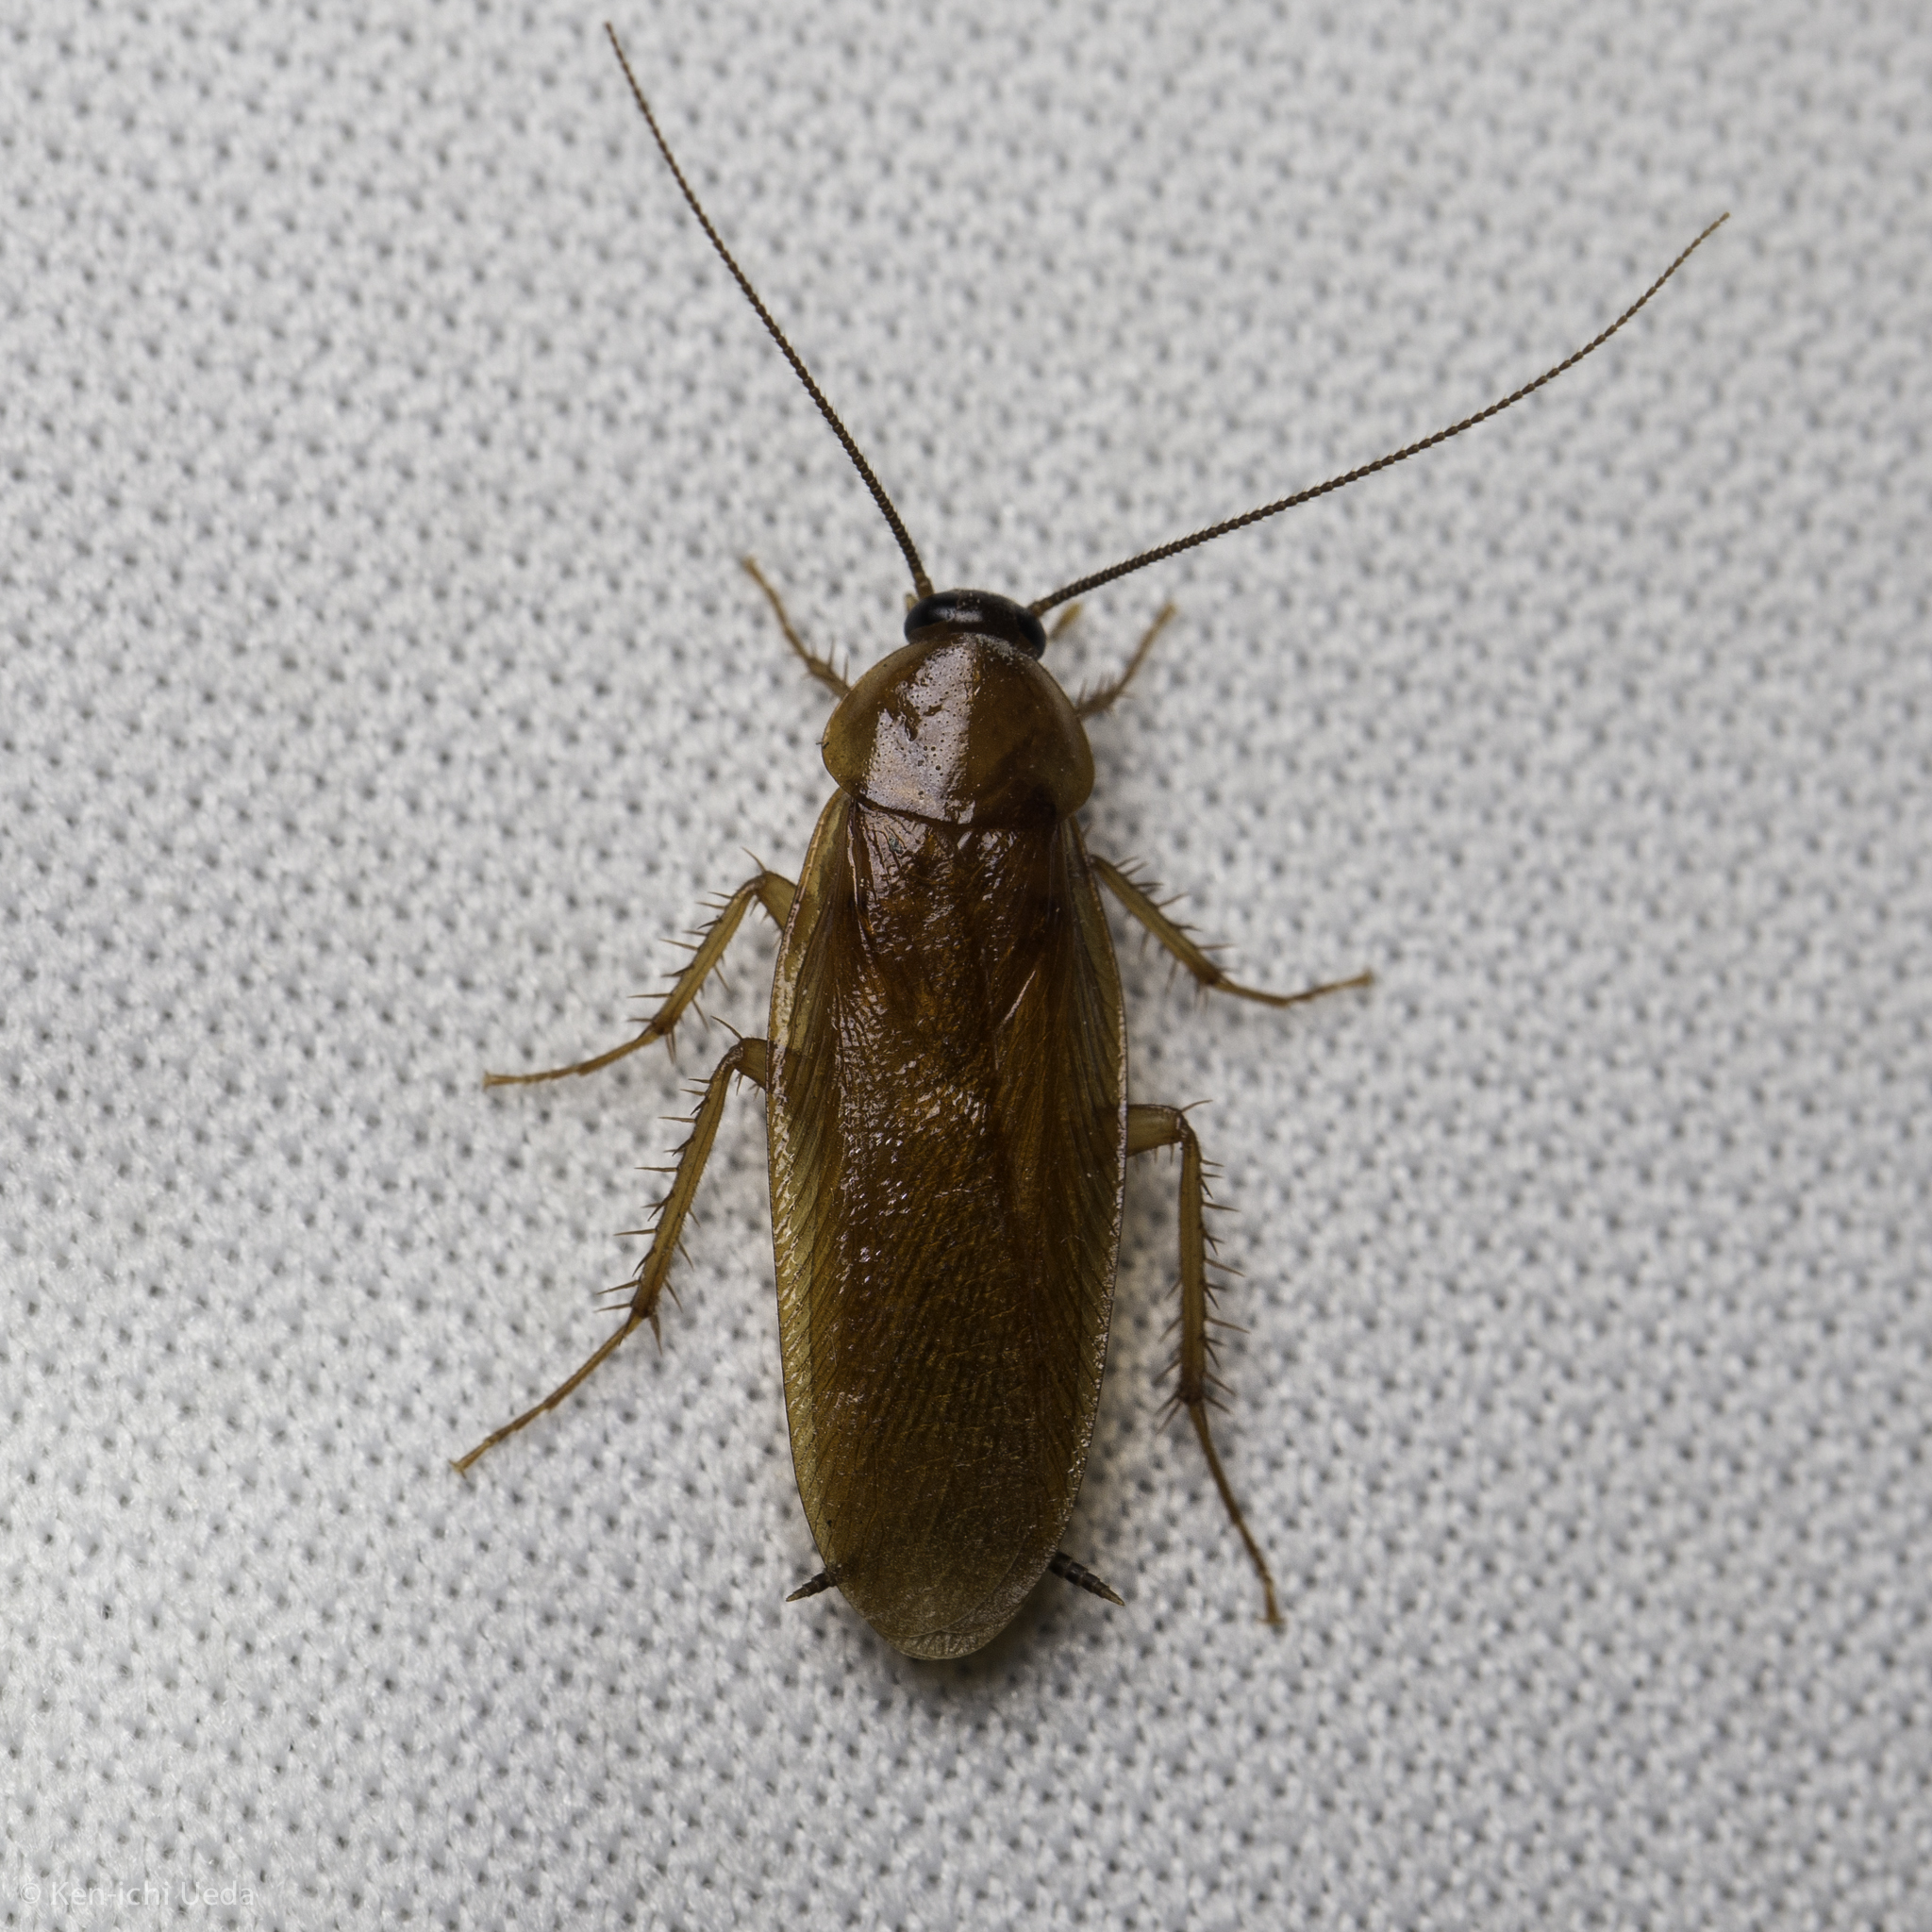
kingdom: Animalia
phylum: Arthropoda
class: Insecta
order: Blattodea
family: Ectobiidae
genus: Parcoblatta
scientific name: Parcoblatta americana
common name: Western wood cockroach
